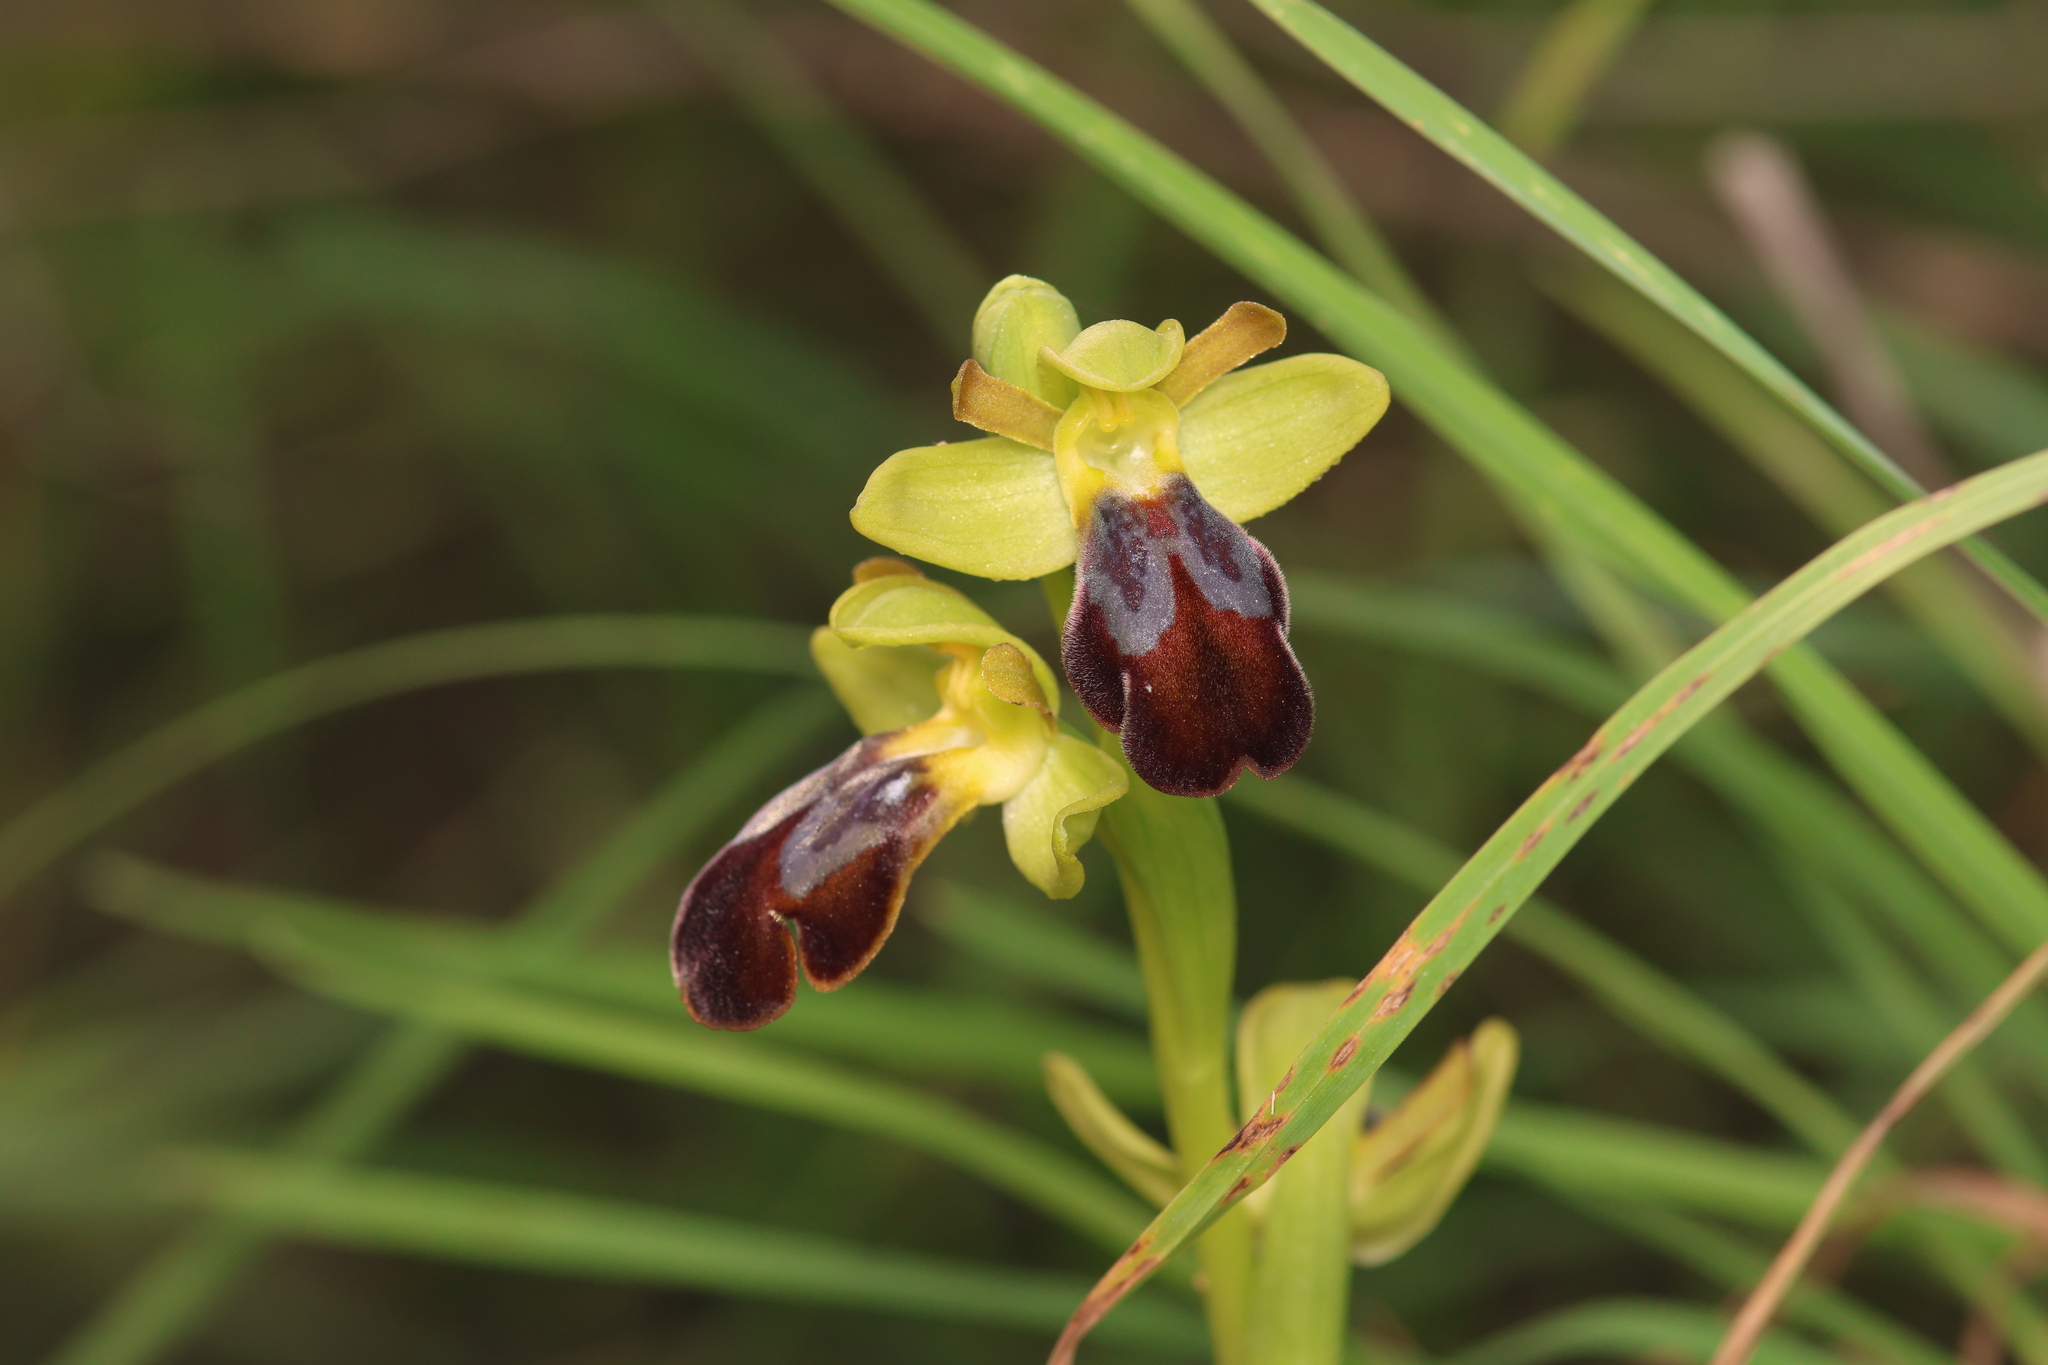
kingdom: Plantae
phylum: Tracheophyta
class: Liliopsida
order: Asparagales
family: Orchidaceae
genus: Ophrys
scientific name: Ophrys fusca
